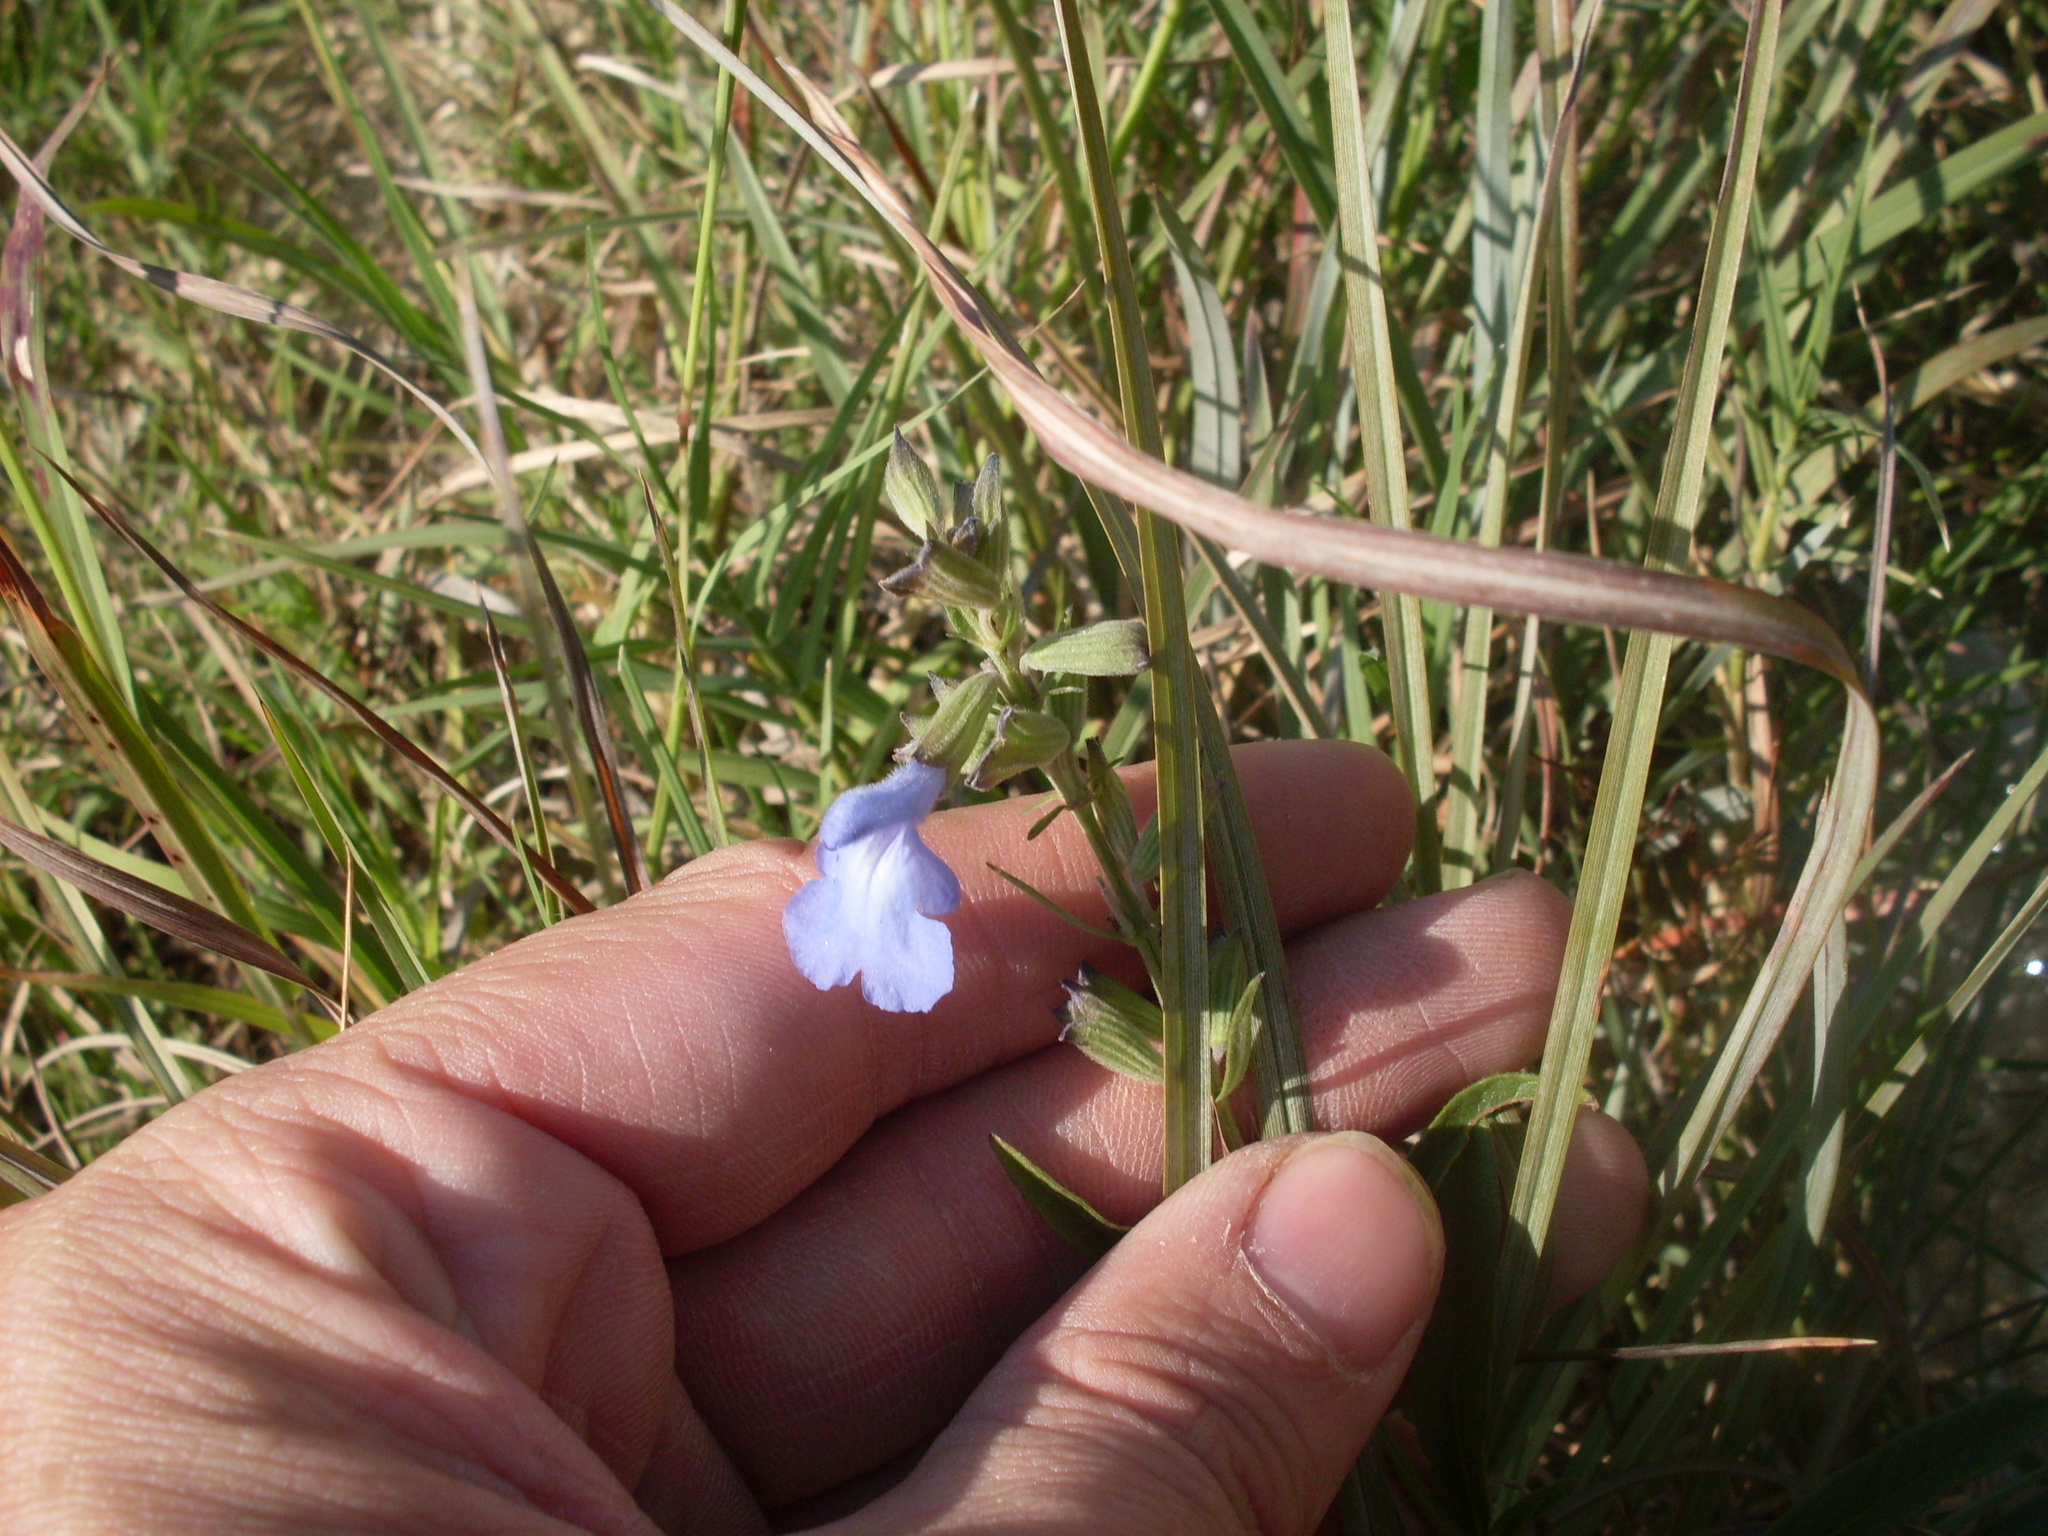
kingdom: Plantae
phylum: Tracheophyta
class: Magnoliopsida
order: Lamiales
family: Lamiaceae
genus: Salvia
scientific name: Salvia azurea
